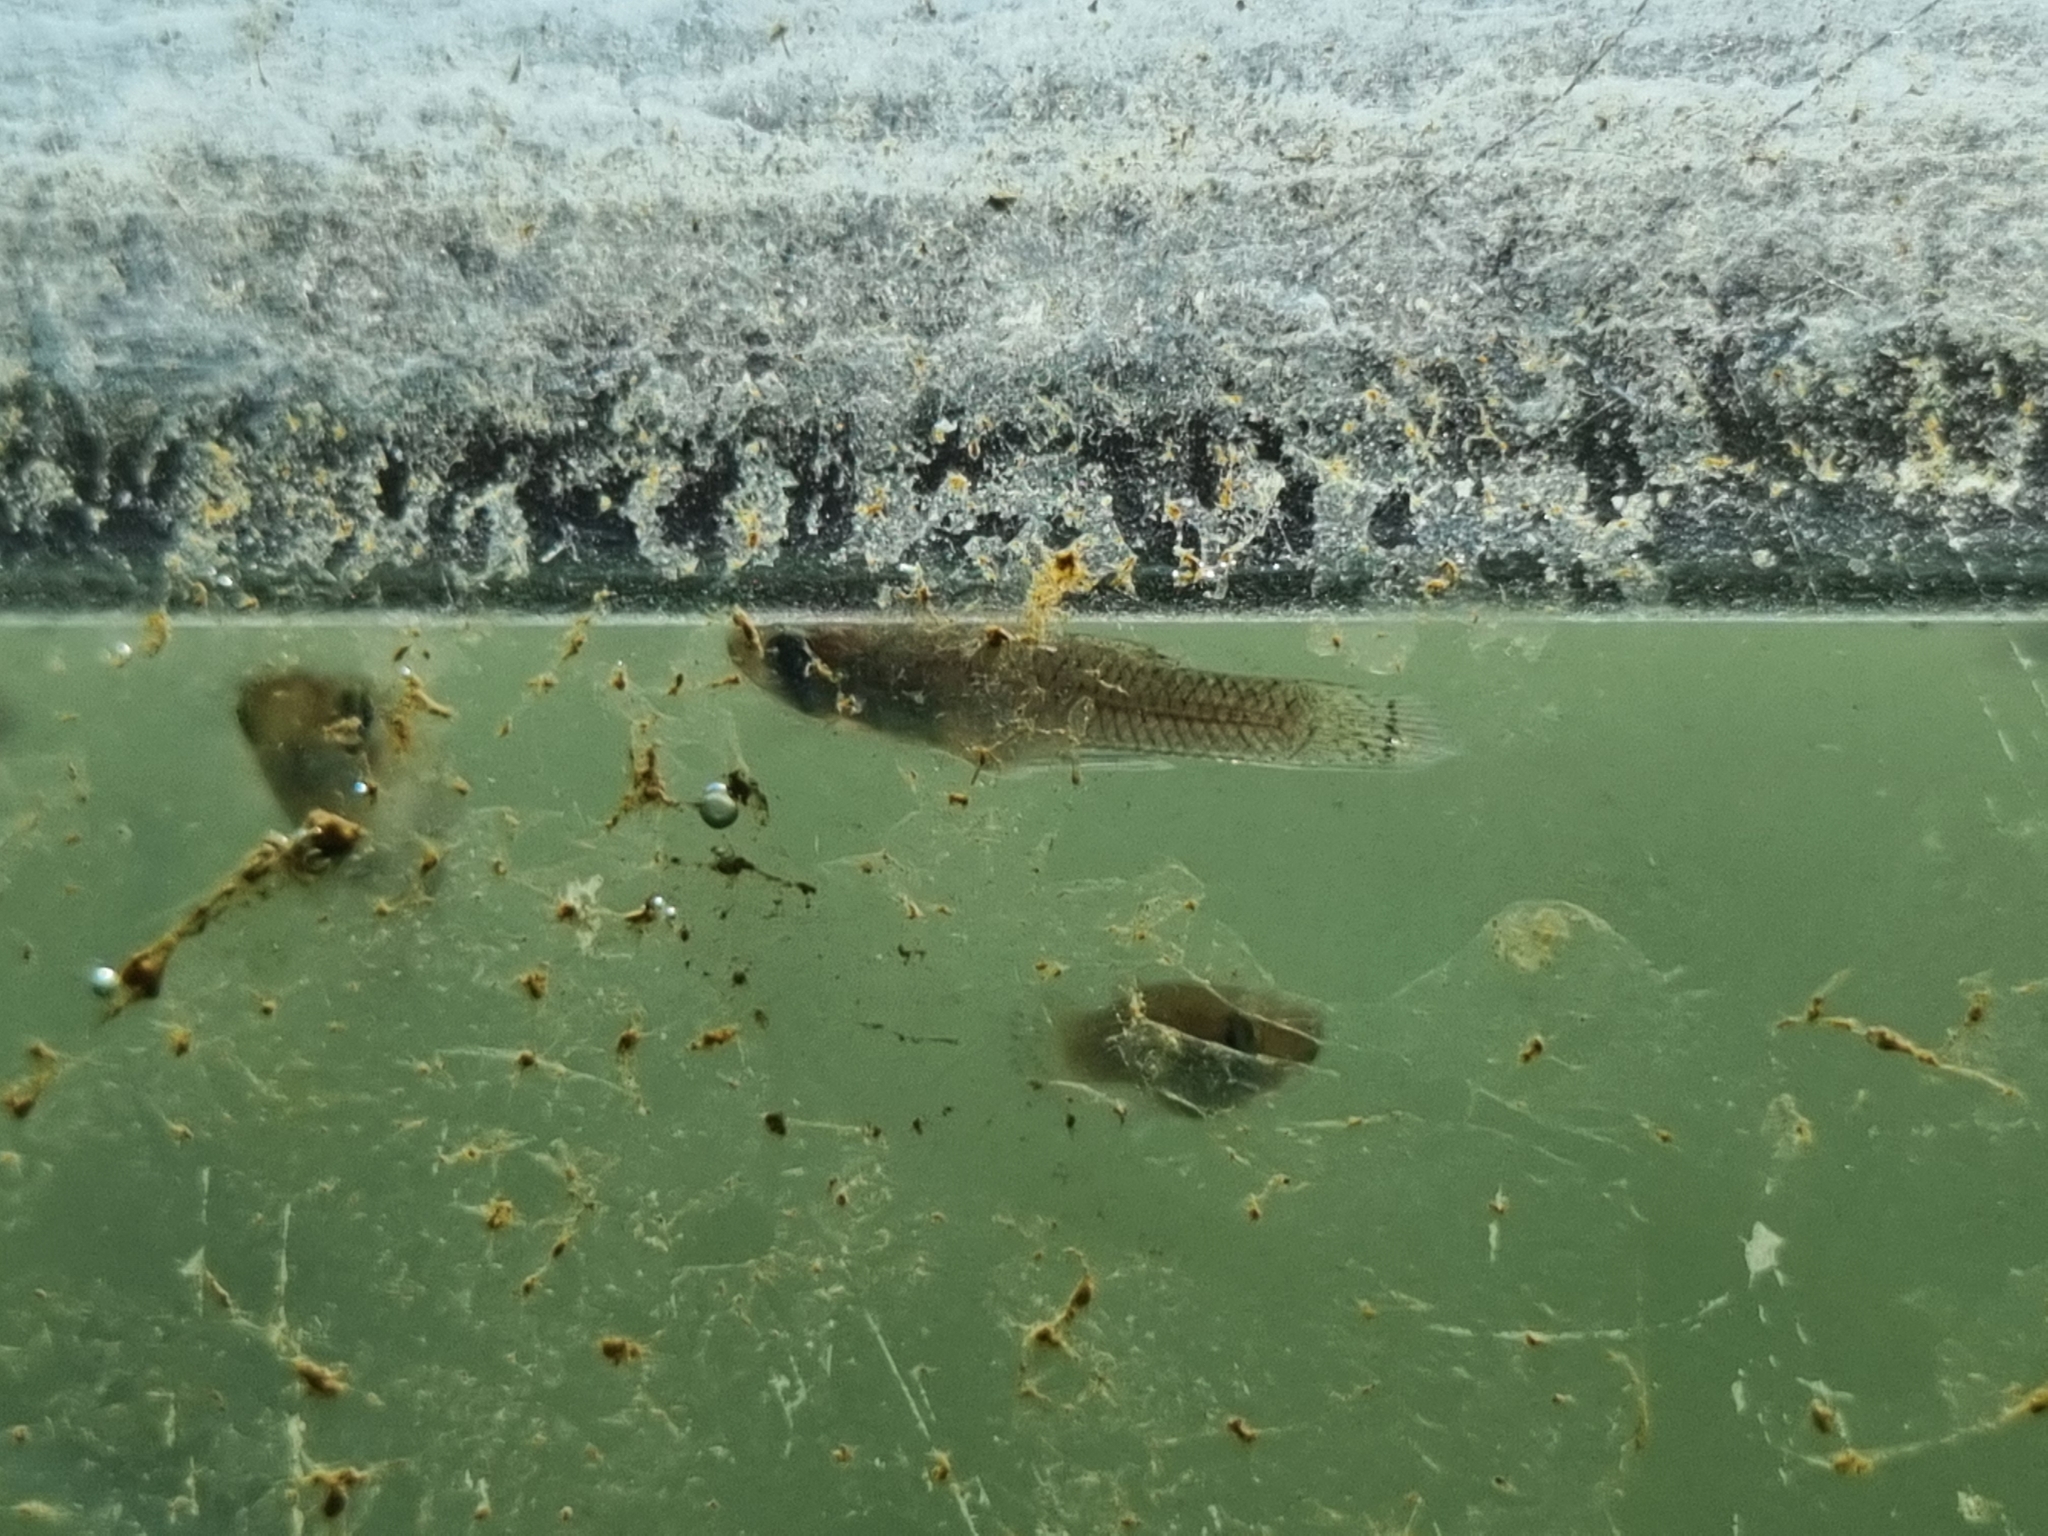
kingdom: Animalia
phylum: Chordata
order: Cyprinodontiformes
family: Poeciliidae
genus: Gambusia
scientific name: Gambusia holbrooki
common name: Eastern mosquitofish
